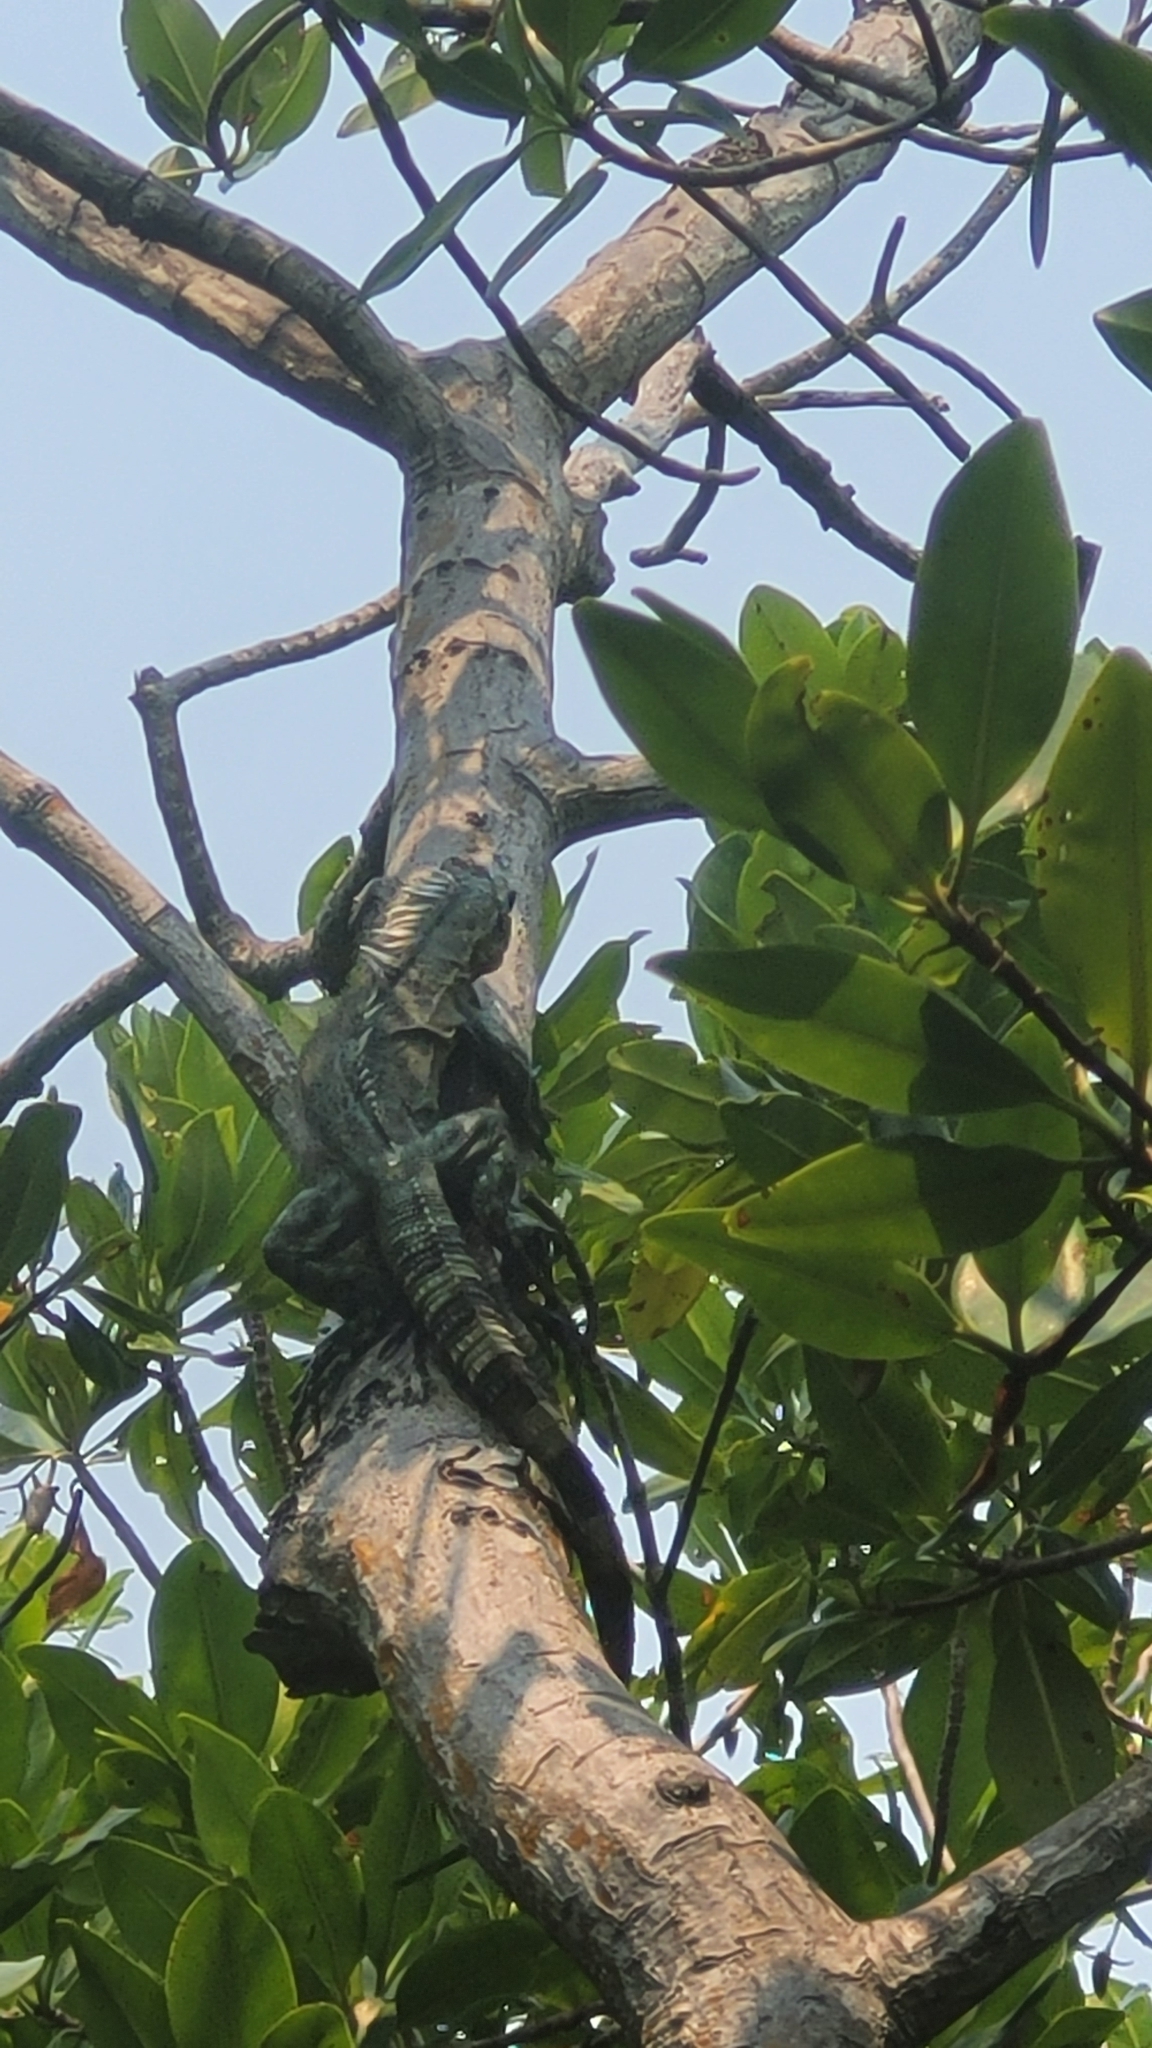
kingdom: Animalia
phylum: Chordata
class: Squamata
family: Iguanidae
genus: Ctenosaura
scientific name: Ctenosaura bakeri
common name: Utila spiny-tailed iguana
